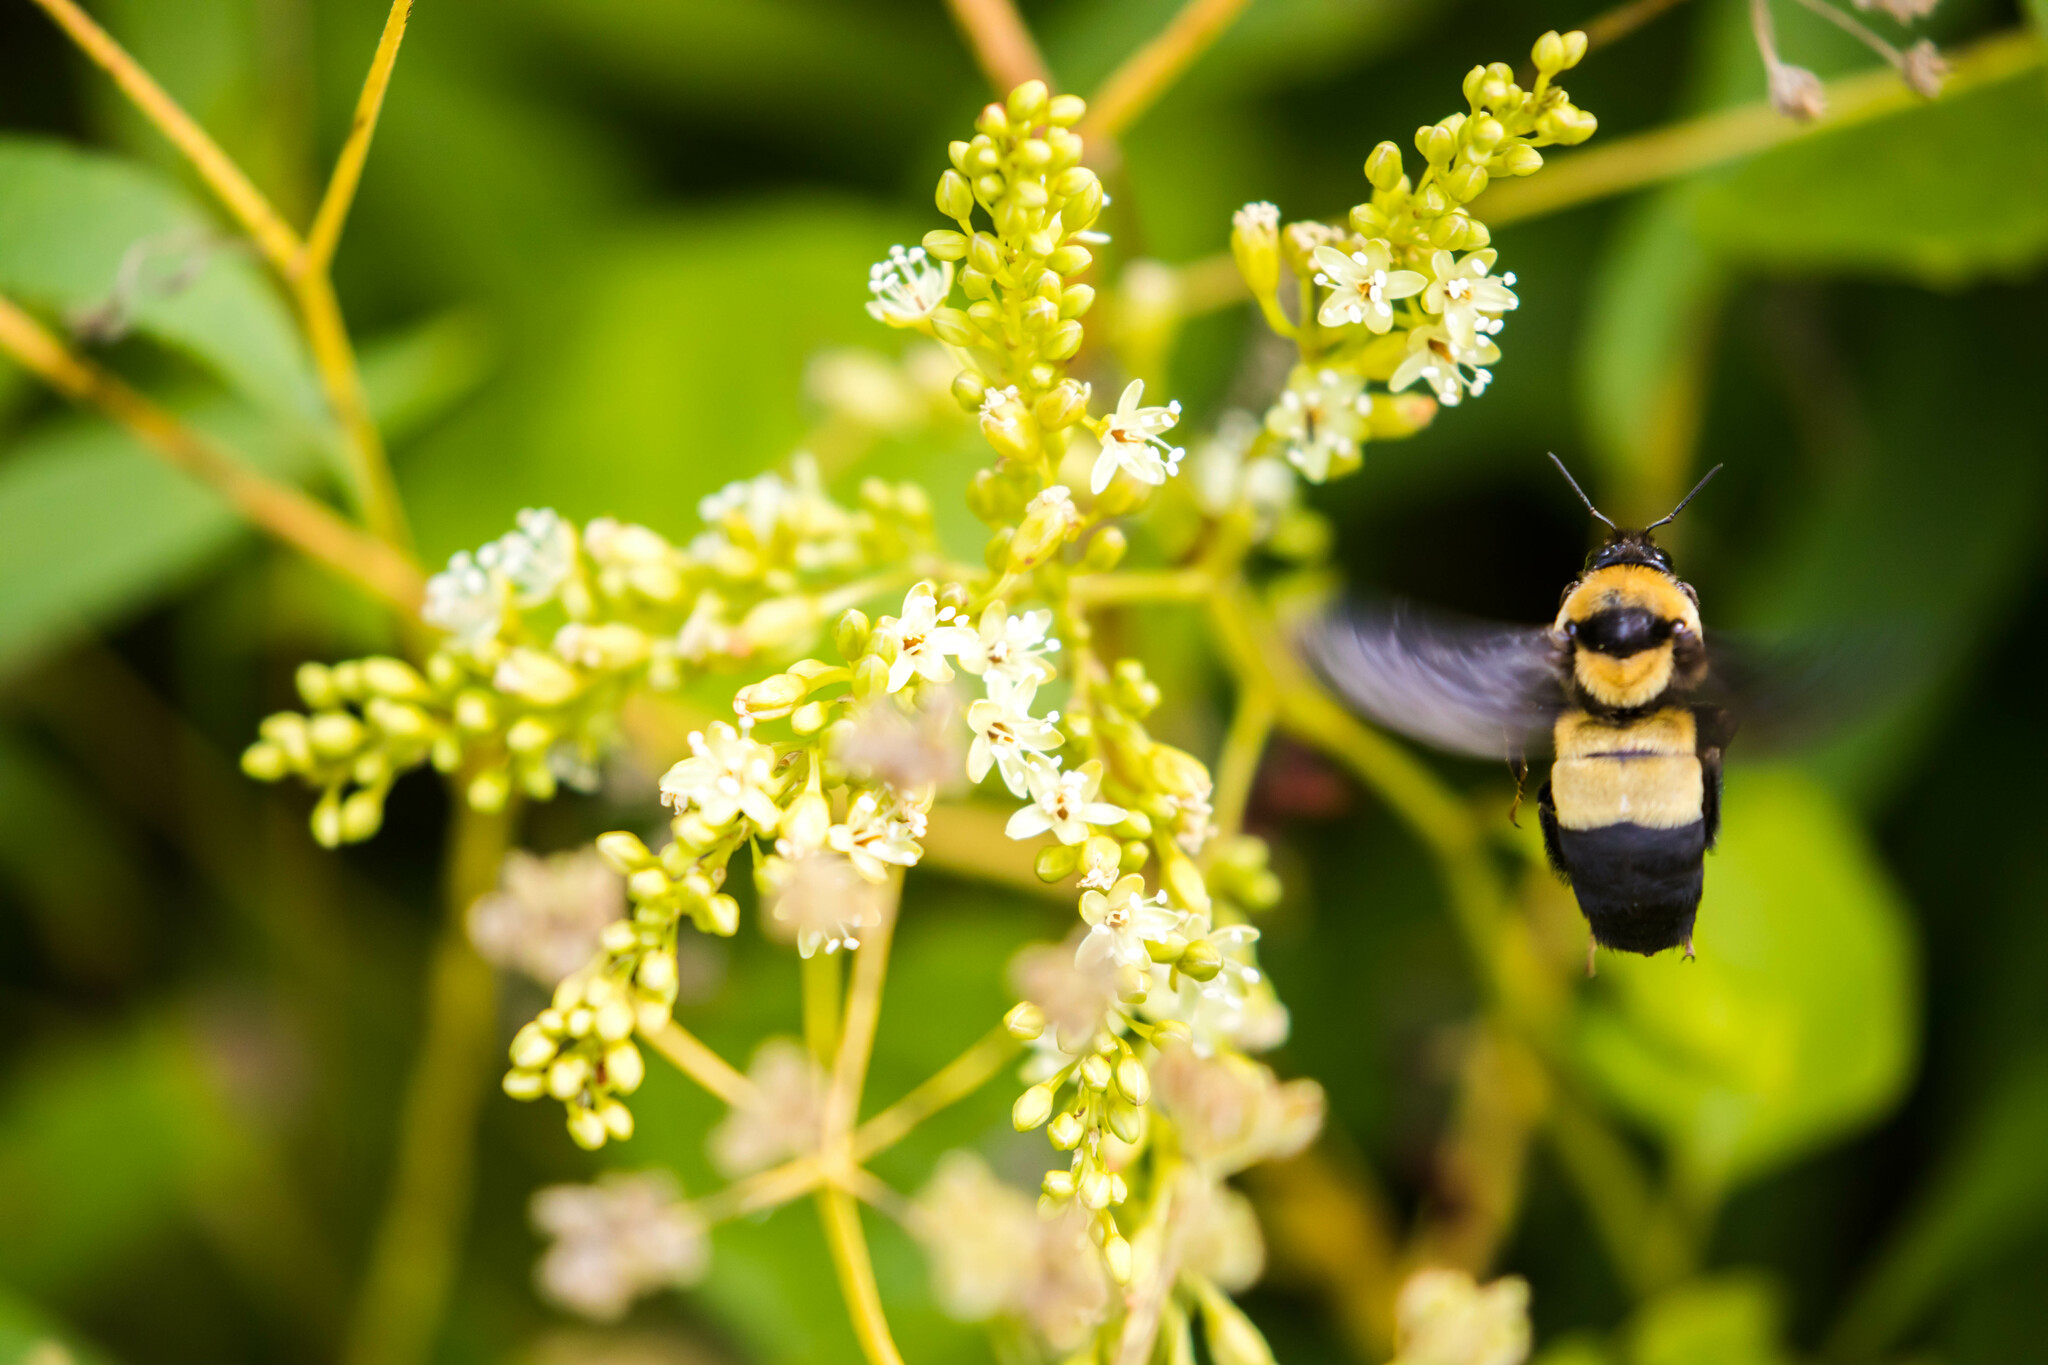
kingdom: Animalia
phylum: Arthropoda
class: Insecta
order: Hymenoptera
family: Apidae
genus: Bombus
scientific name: Bombus fraternus
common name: Southern plains bumble bee
